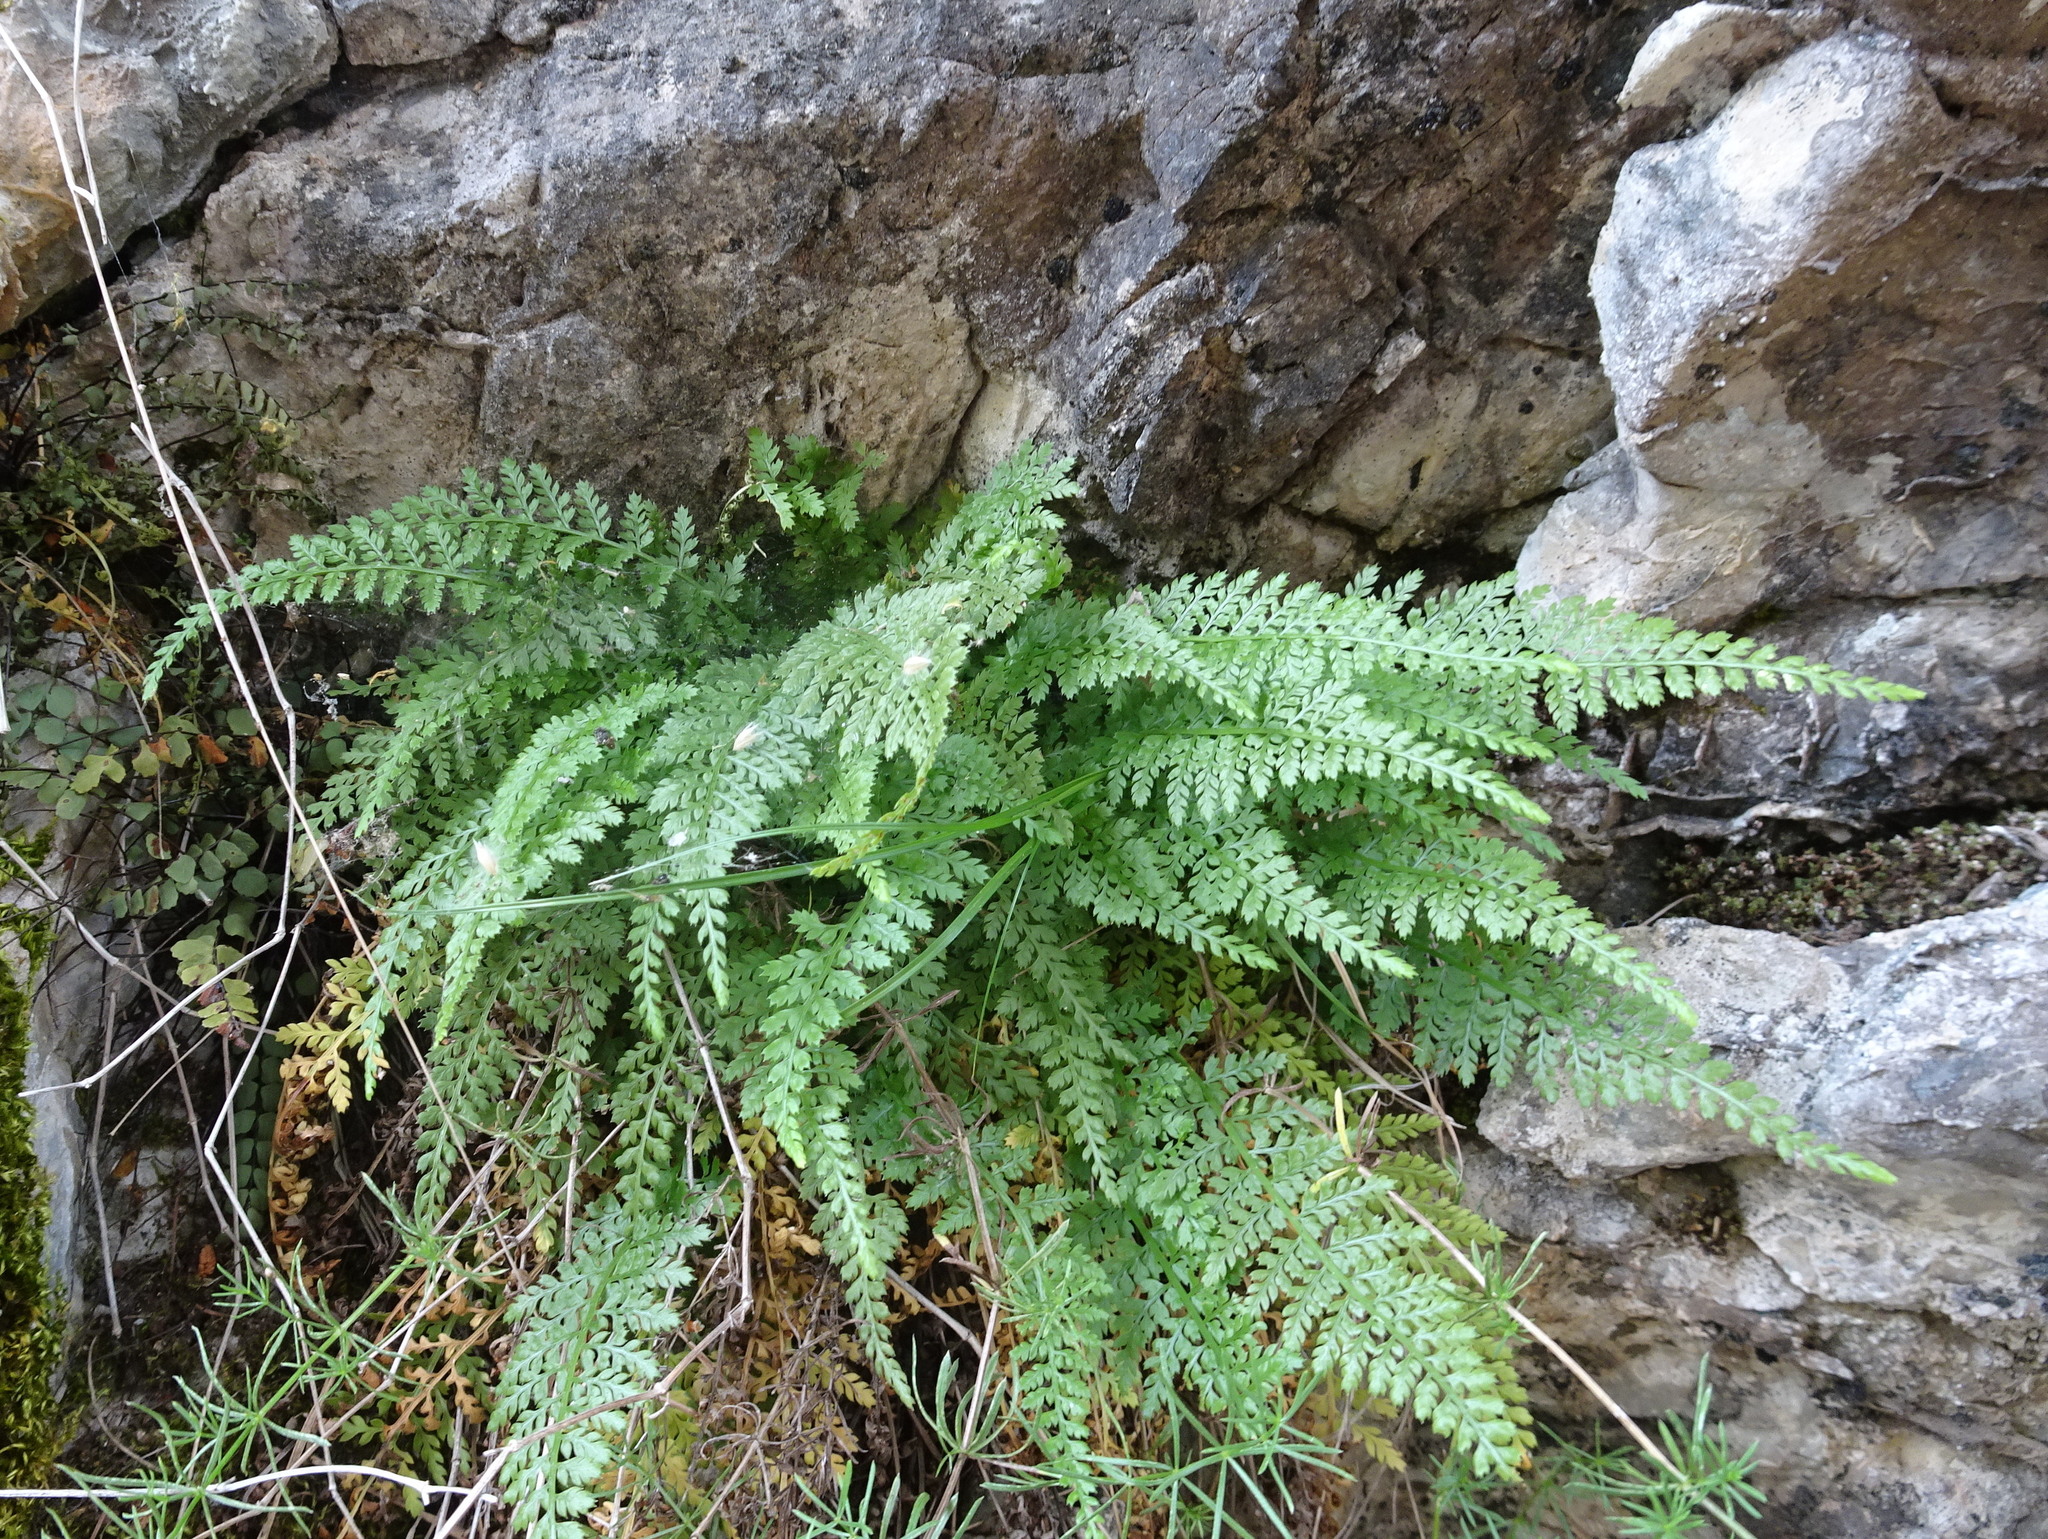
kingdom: Plantae
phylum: Tracheophyta
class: Polypodiopsida
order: Polypodiales
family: Aspleniaceae
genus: Asplenium
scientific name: Asplenium fontanum
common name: Fountain spleenwort
